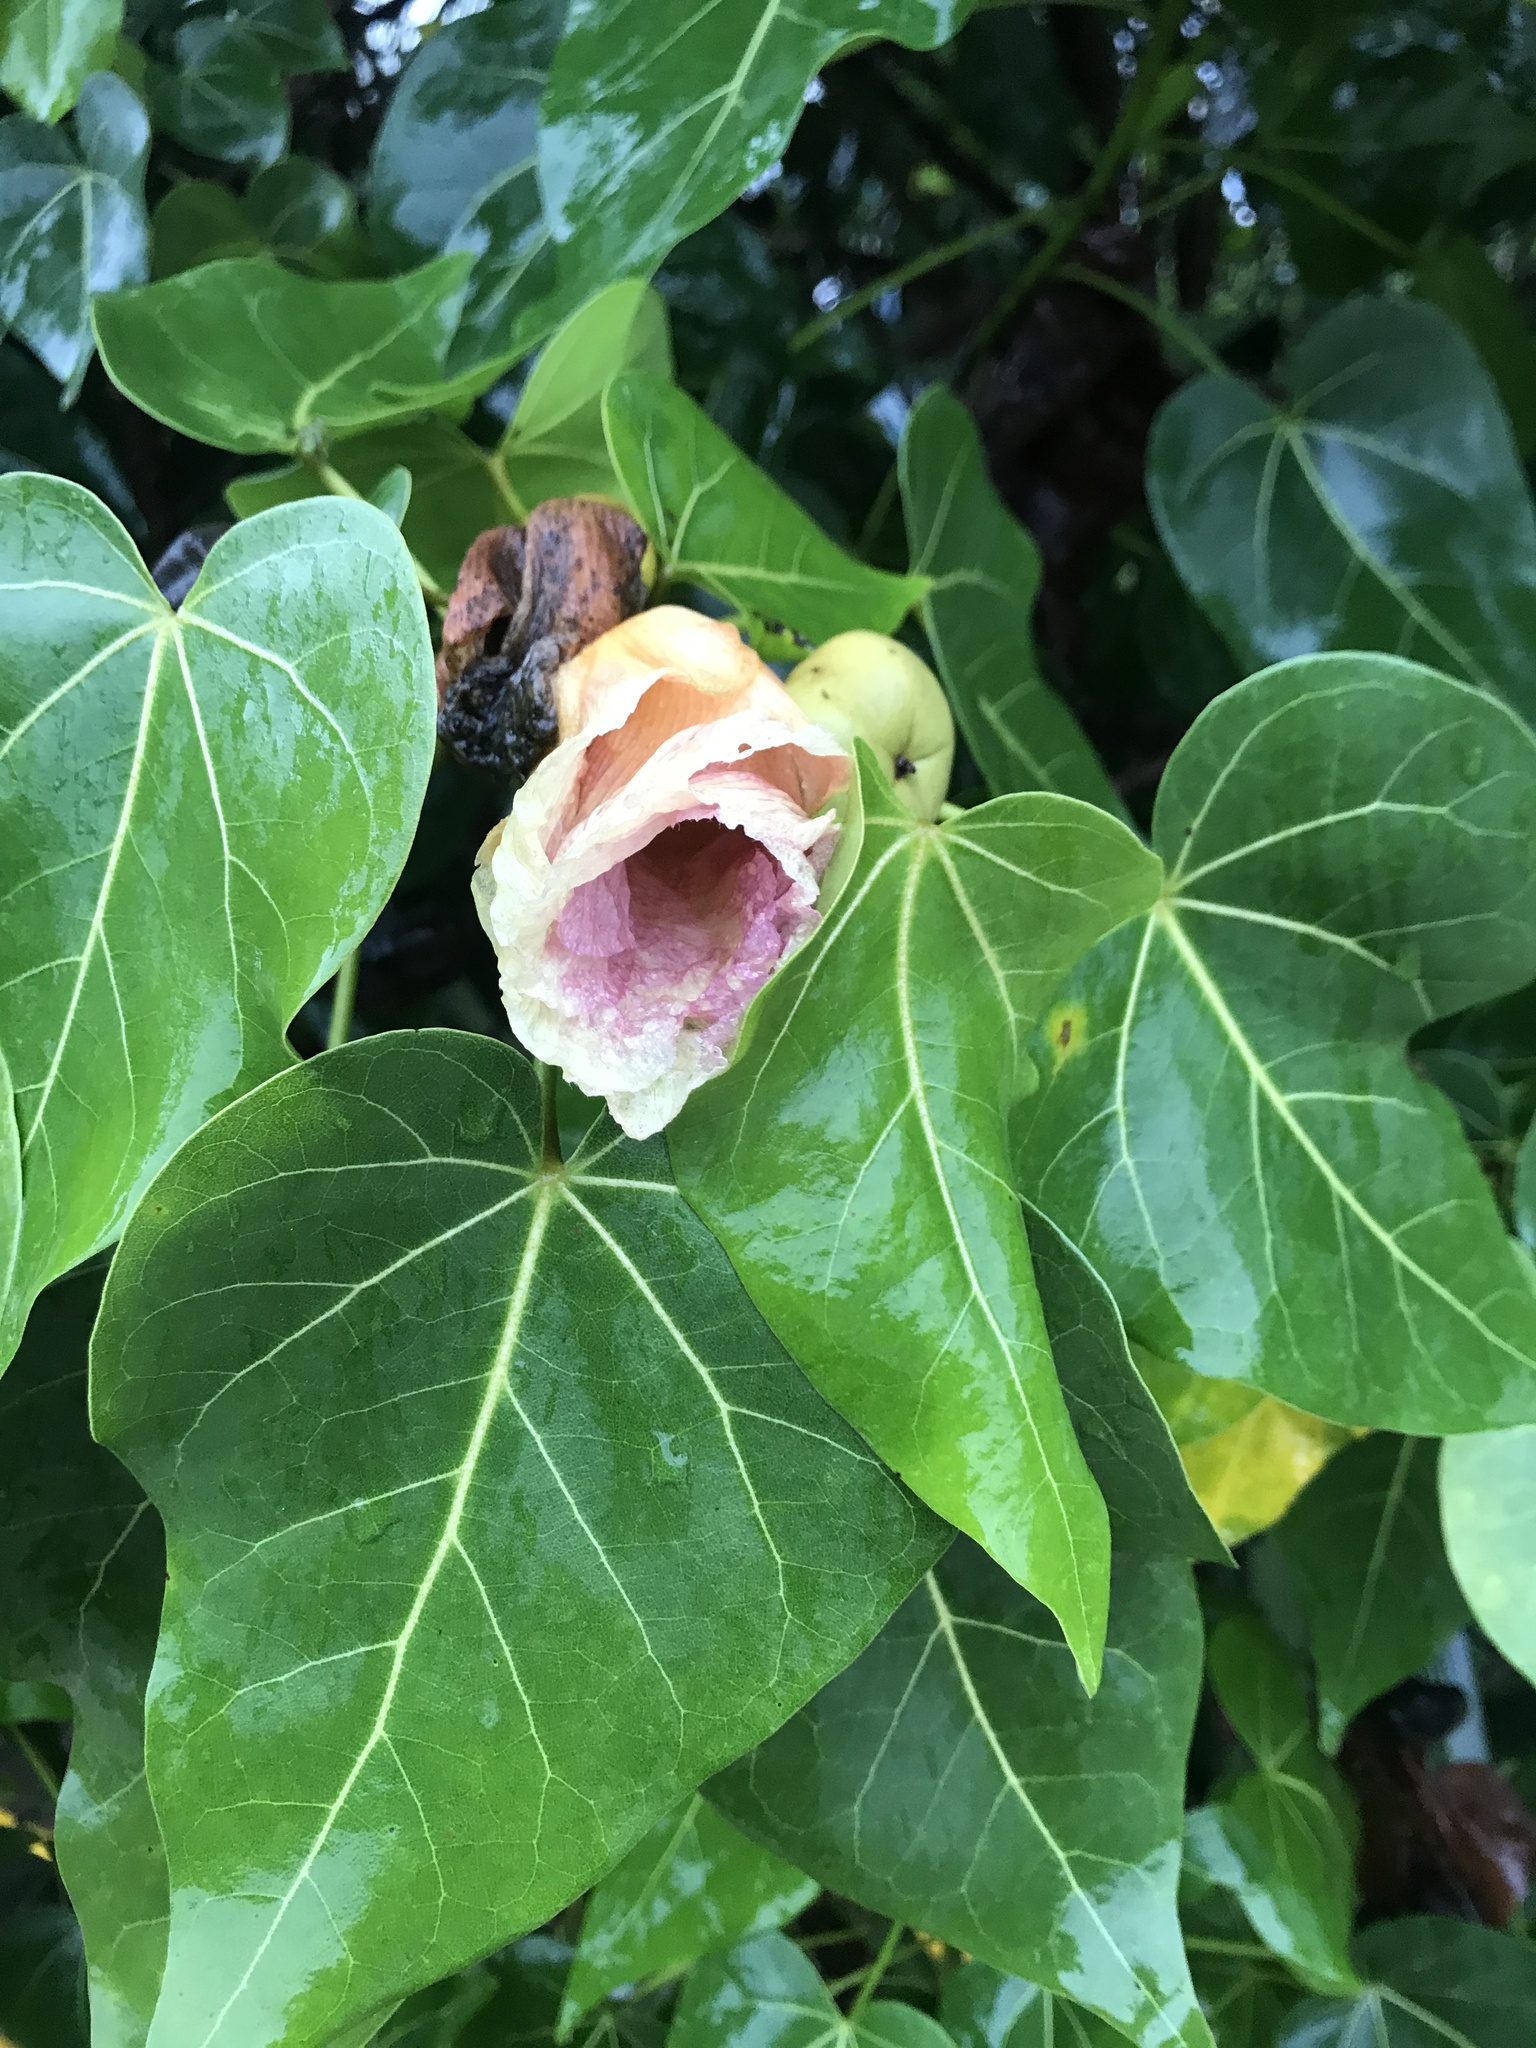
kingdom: Plantae
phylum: Tracheophyta
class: Magnoliopsida
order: Malvales
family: Malvaceae
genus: Thespesia
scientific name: Thespesia populnea
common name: Seaside mahoe
